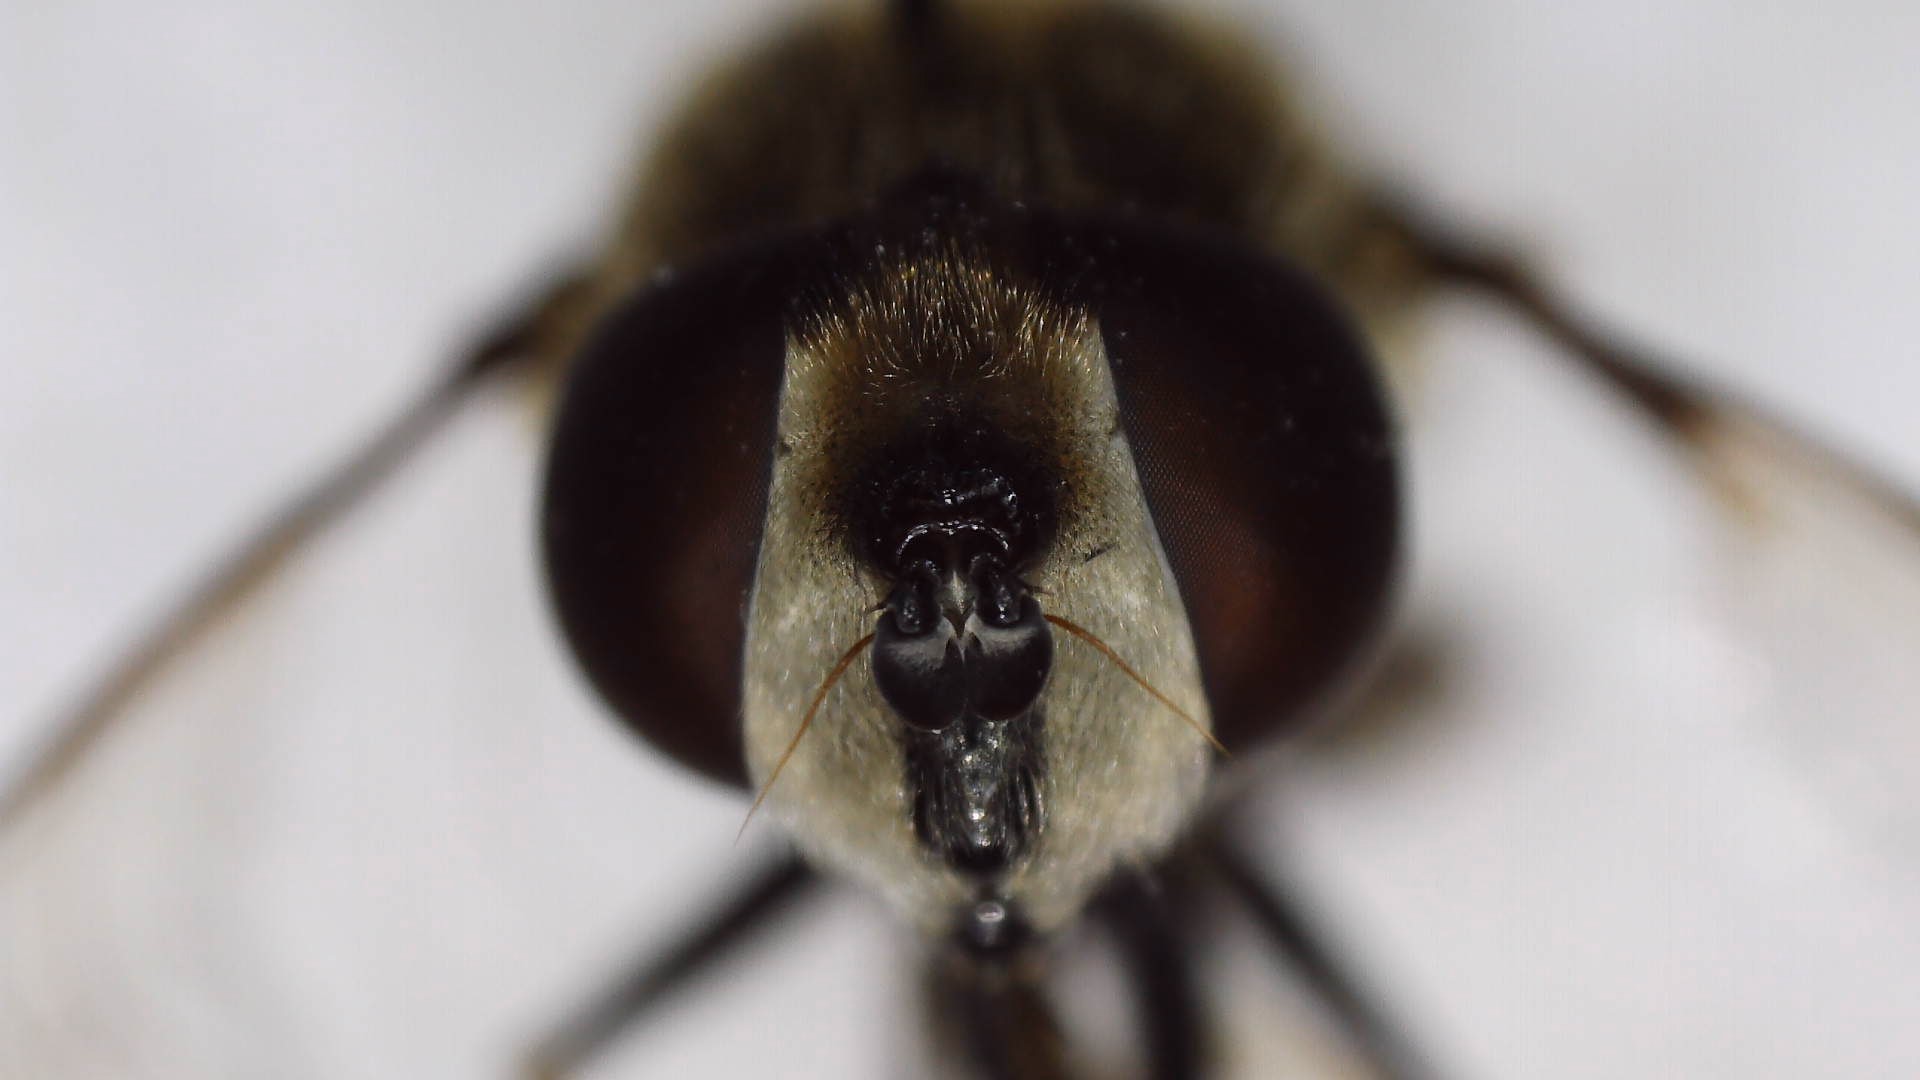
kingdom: Animalia
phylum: Arthropoda
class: Insecta
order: Diptera
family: Syrphidae
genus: Eristalis
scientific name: Eristalis dimidiata
